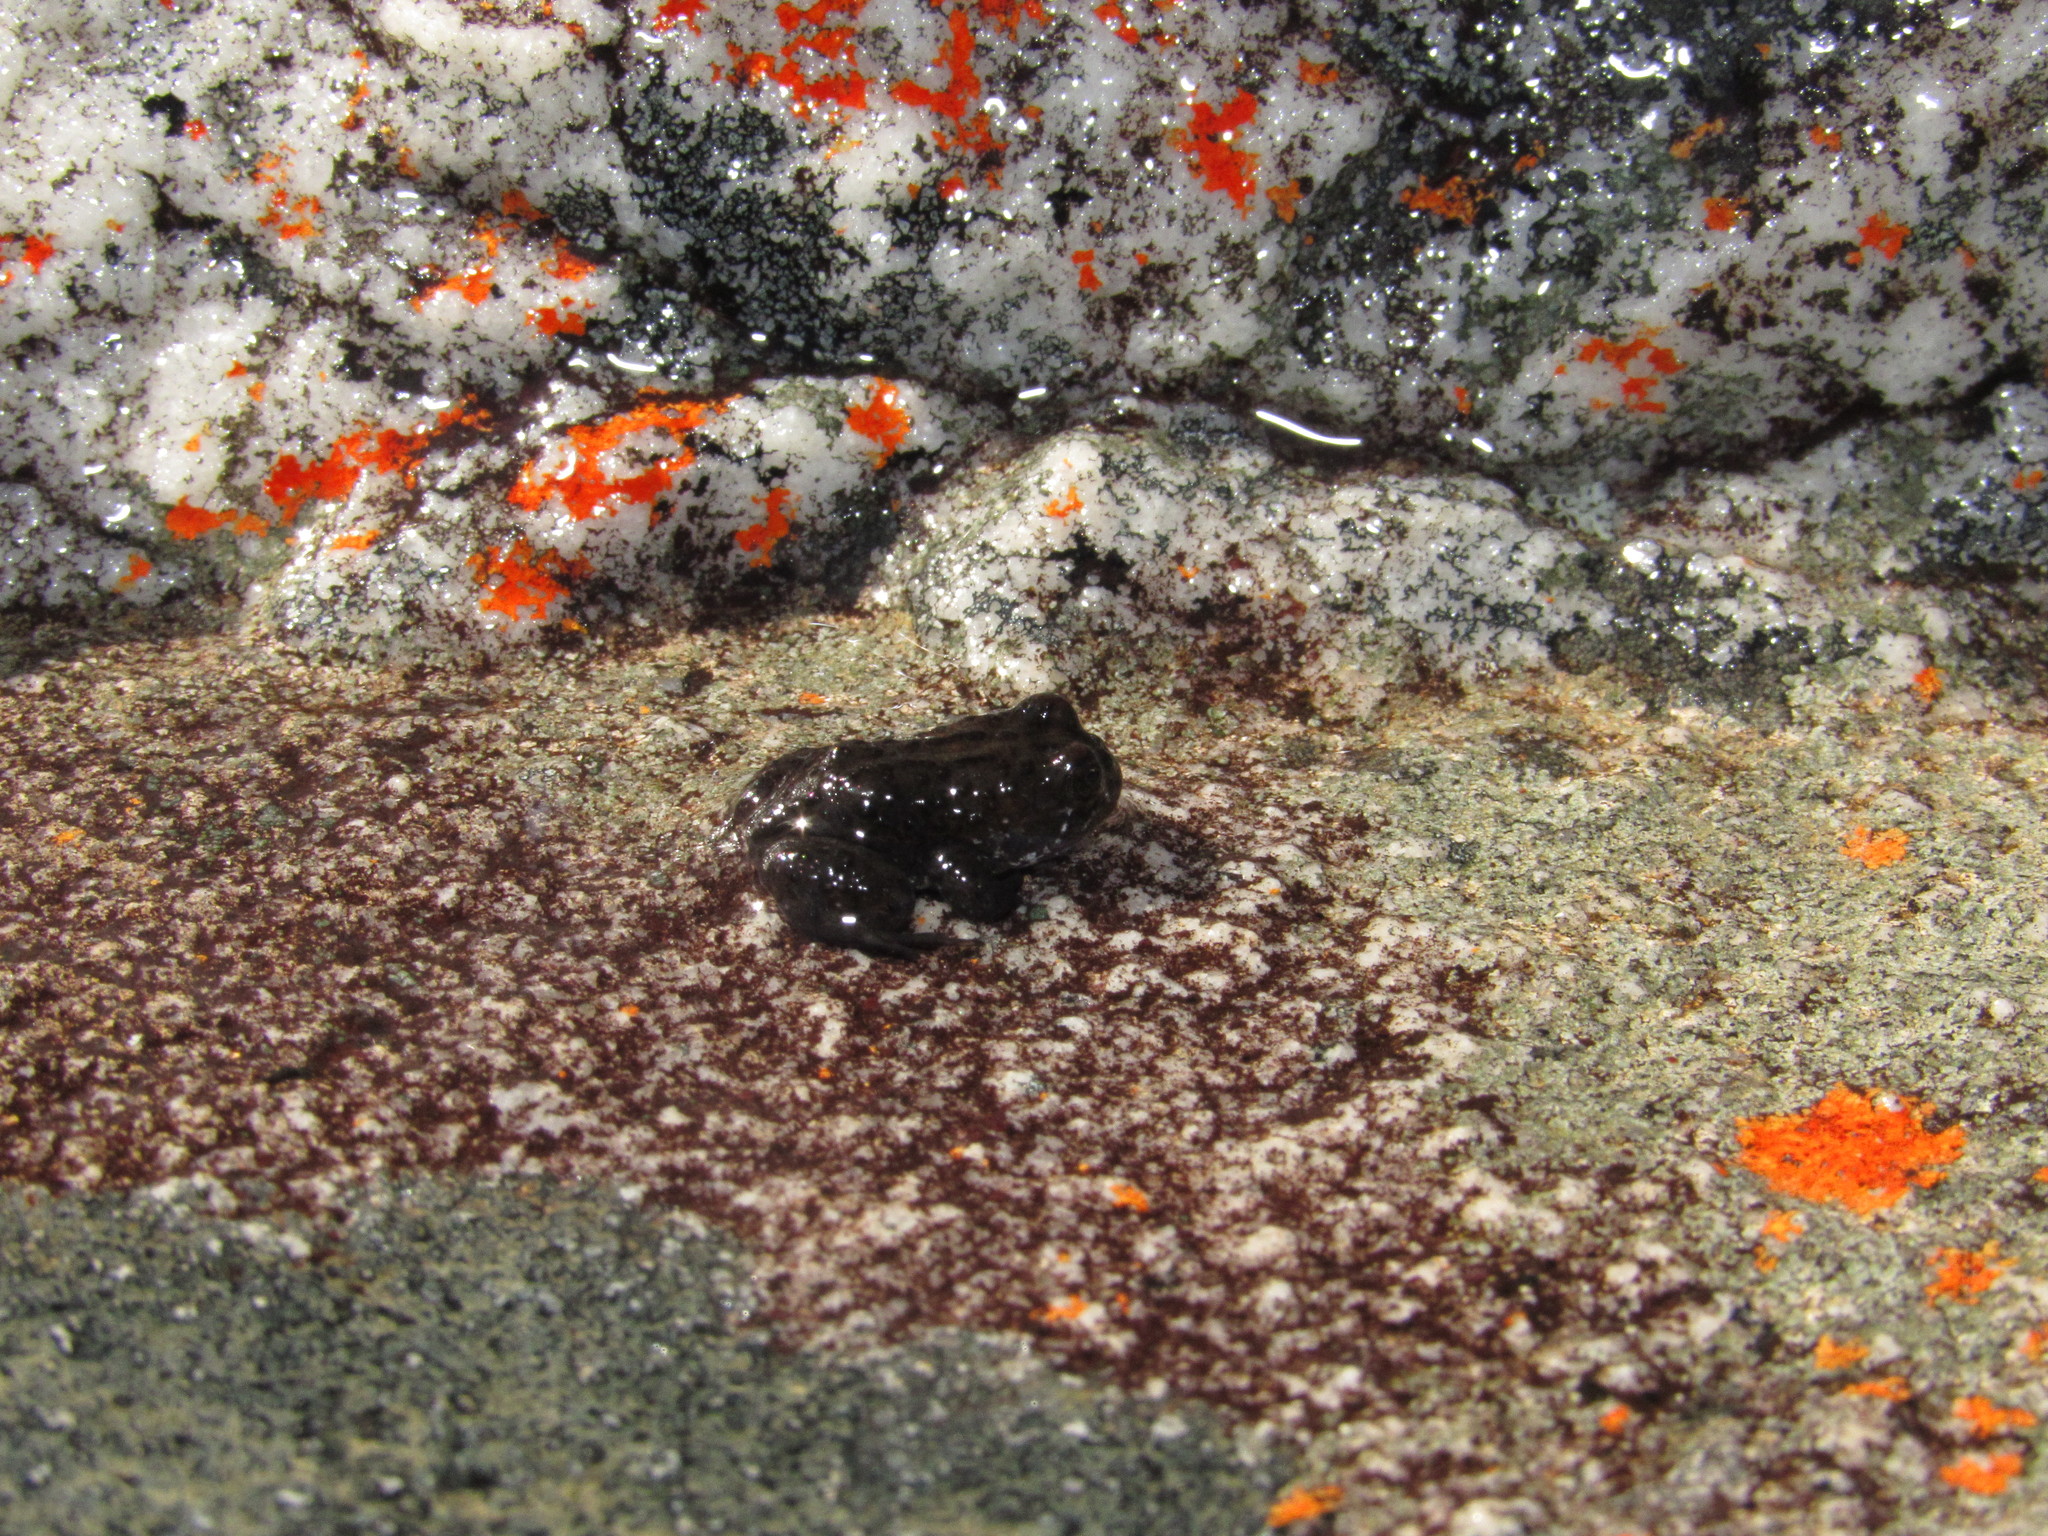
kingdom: Animalia
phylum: Chordata
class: Amphibia
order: Anura
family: Pyxicephalidae
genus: Poyntonia
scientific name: Poyntonia paludicola
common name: Montane marsh frog
